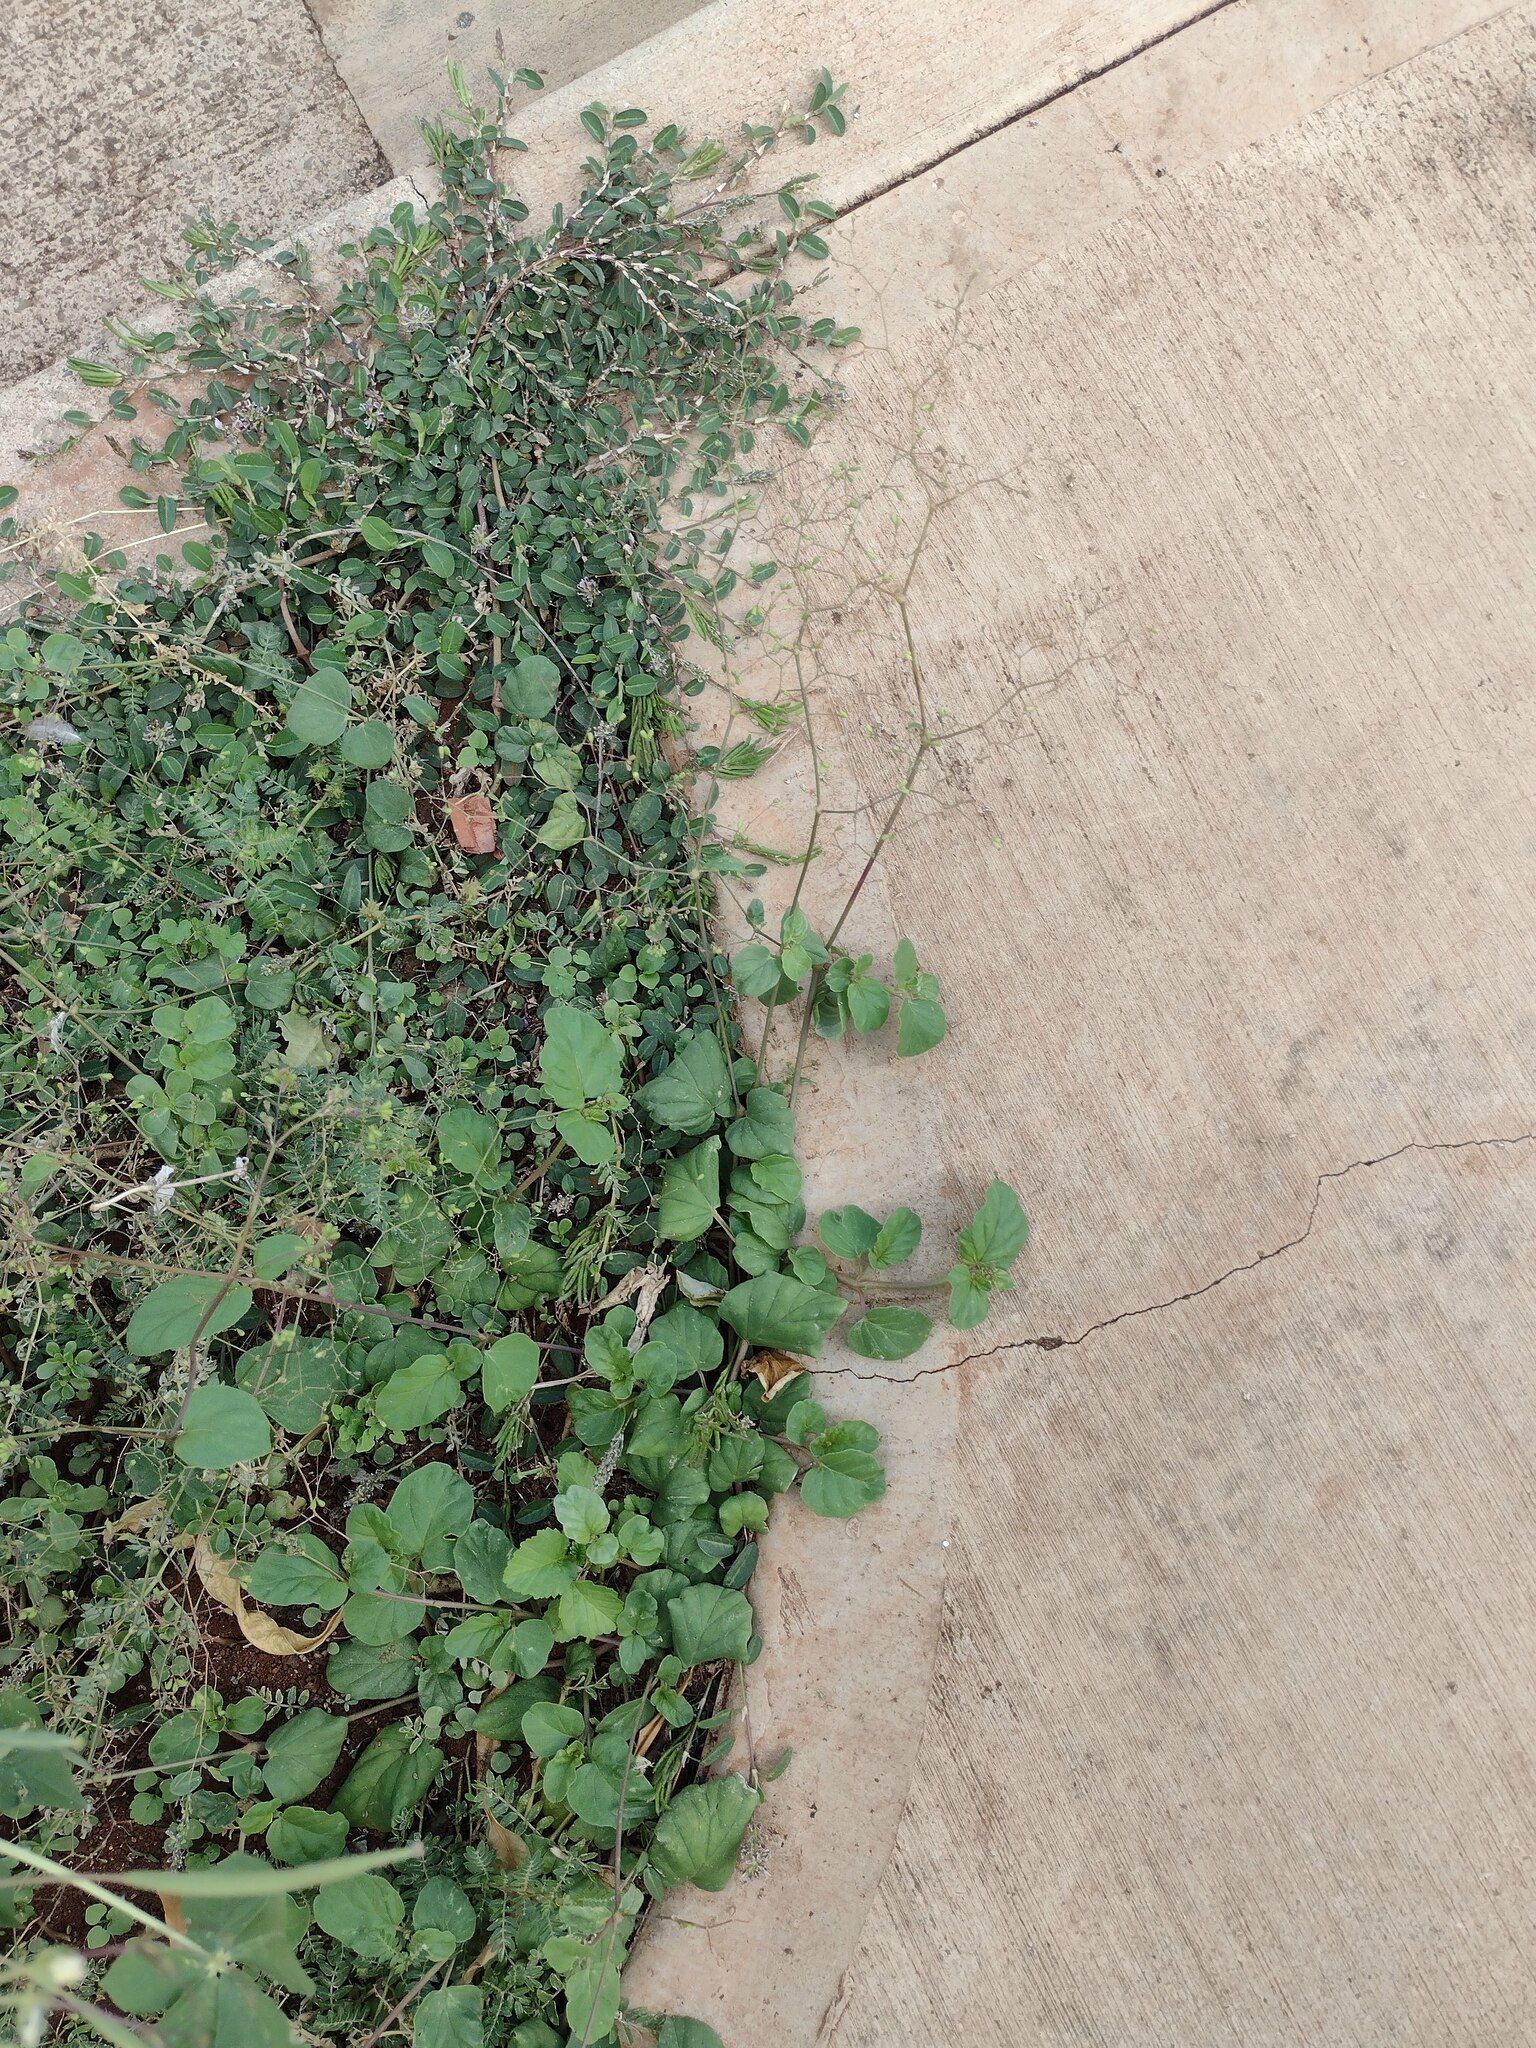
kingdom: Plantae
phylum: Tracheophyta
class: Magnoliopsida
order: Caryophyllales
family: Nyctaginaceae
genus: Boerhavia
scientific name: Boerhavia diffusa
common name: Red spiderling
